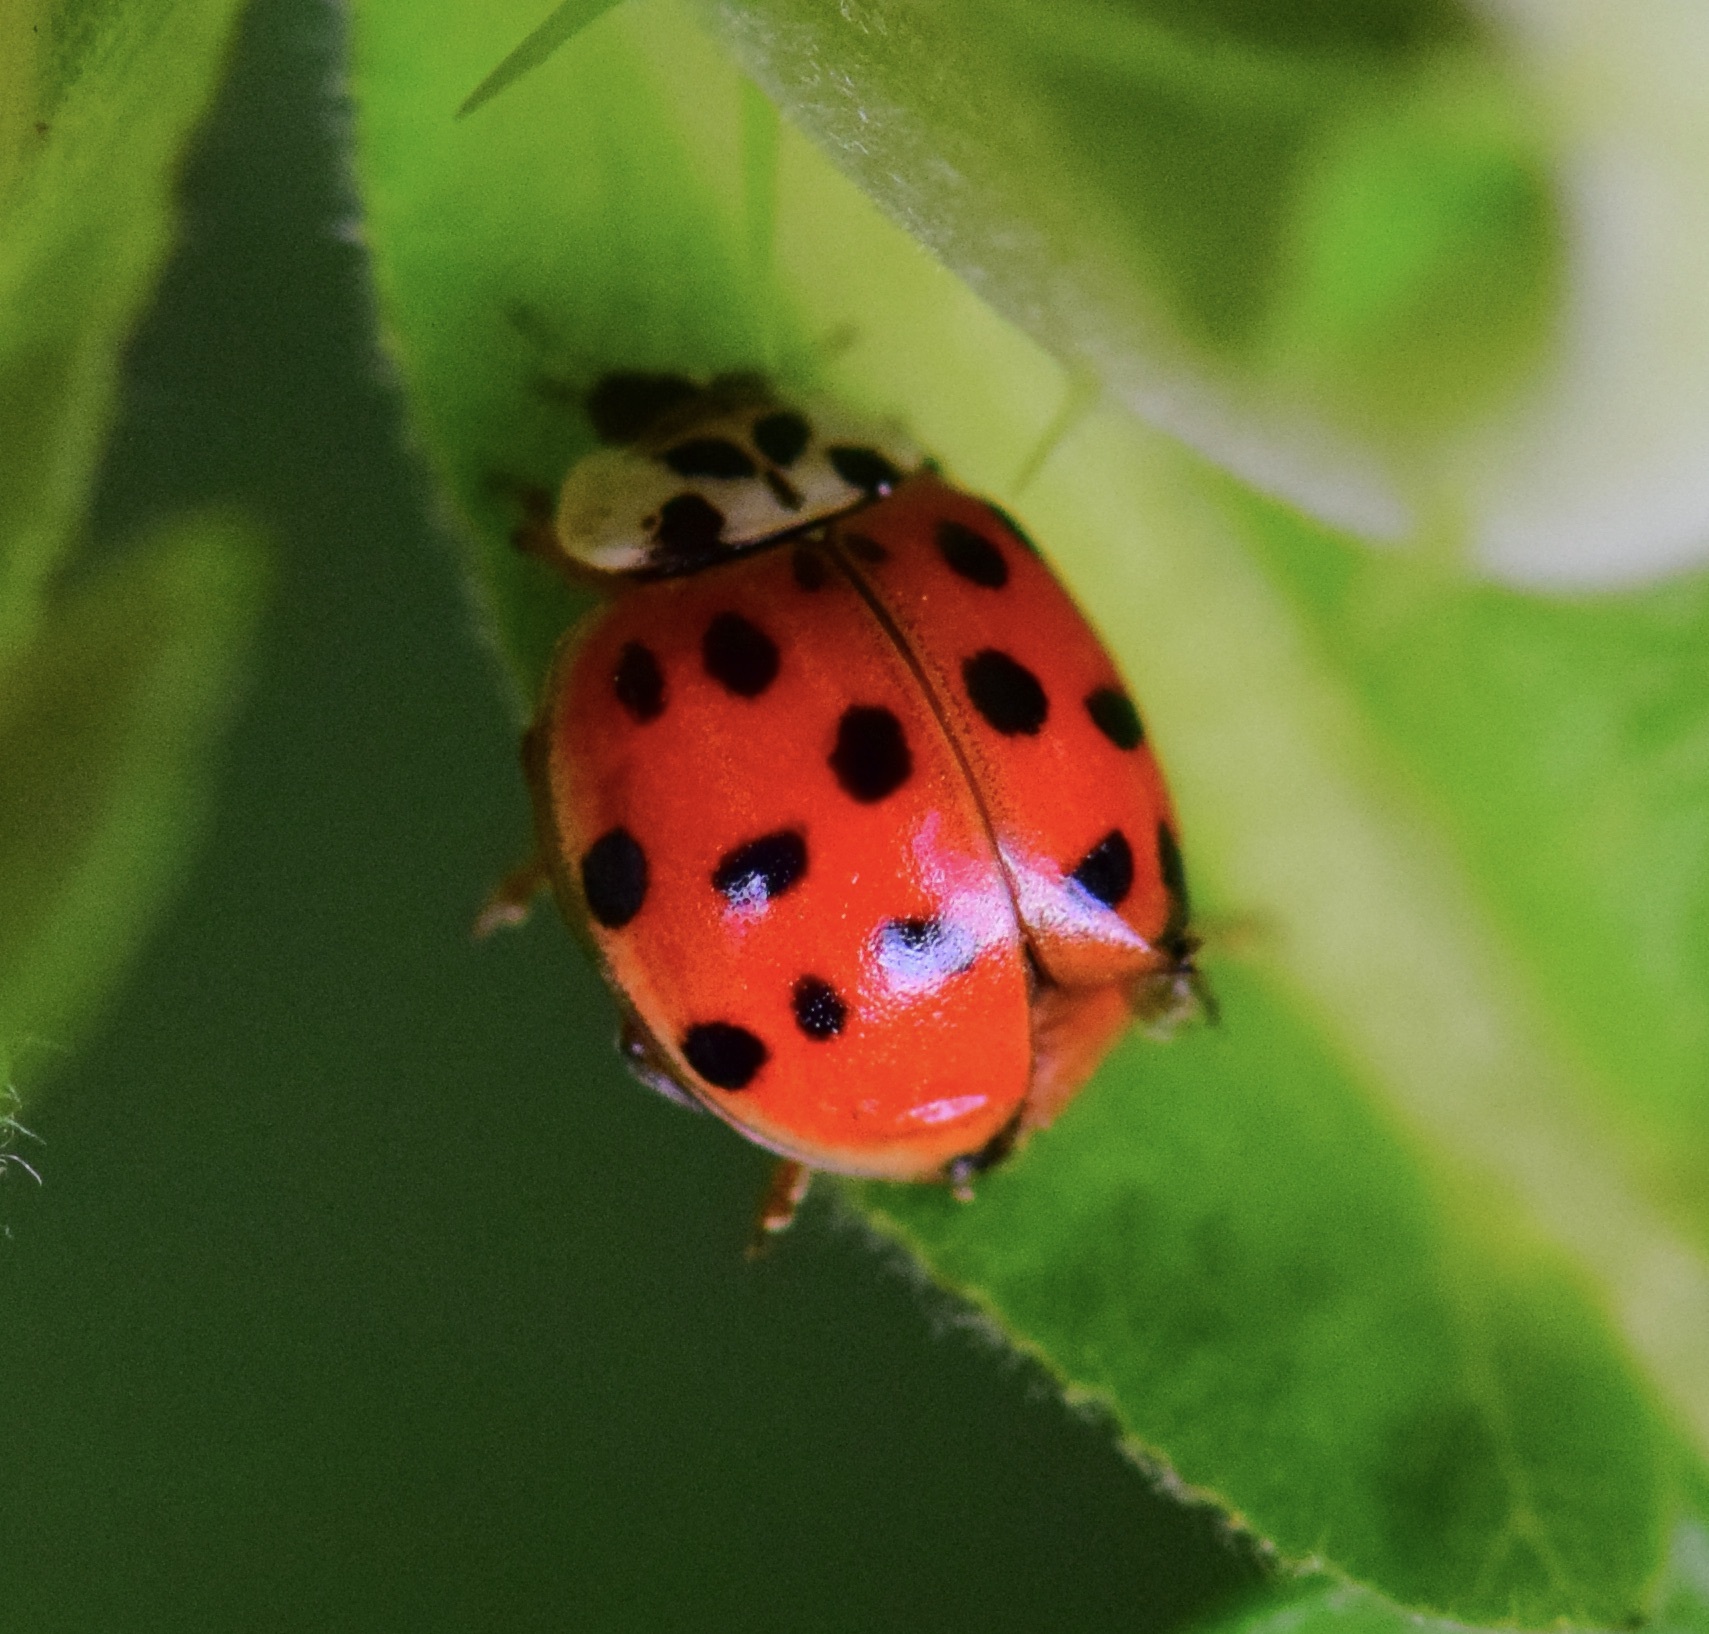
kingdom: Animalia
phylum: Arthropoda
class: Insecta
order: Coleoptera
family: Coccinellidae
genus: Harmonia
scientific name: Harmonia axyridis
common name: Harlequin ladybird
